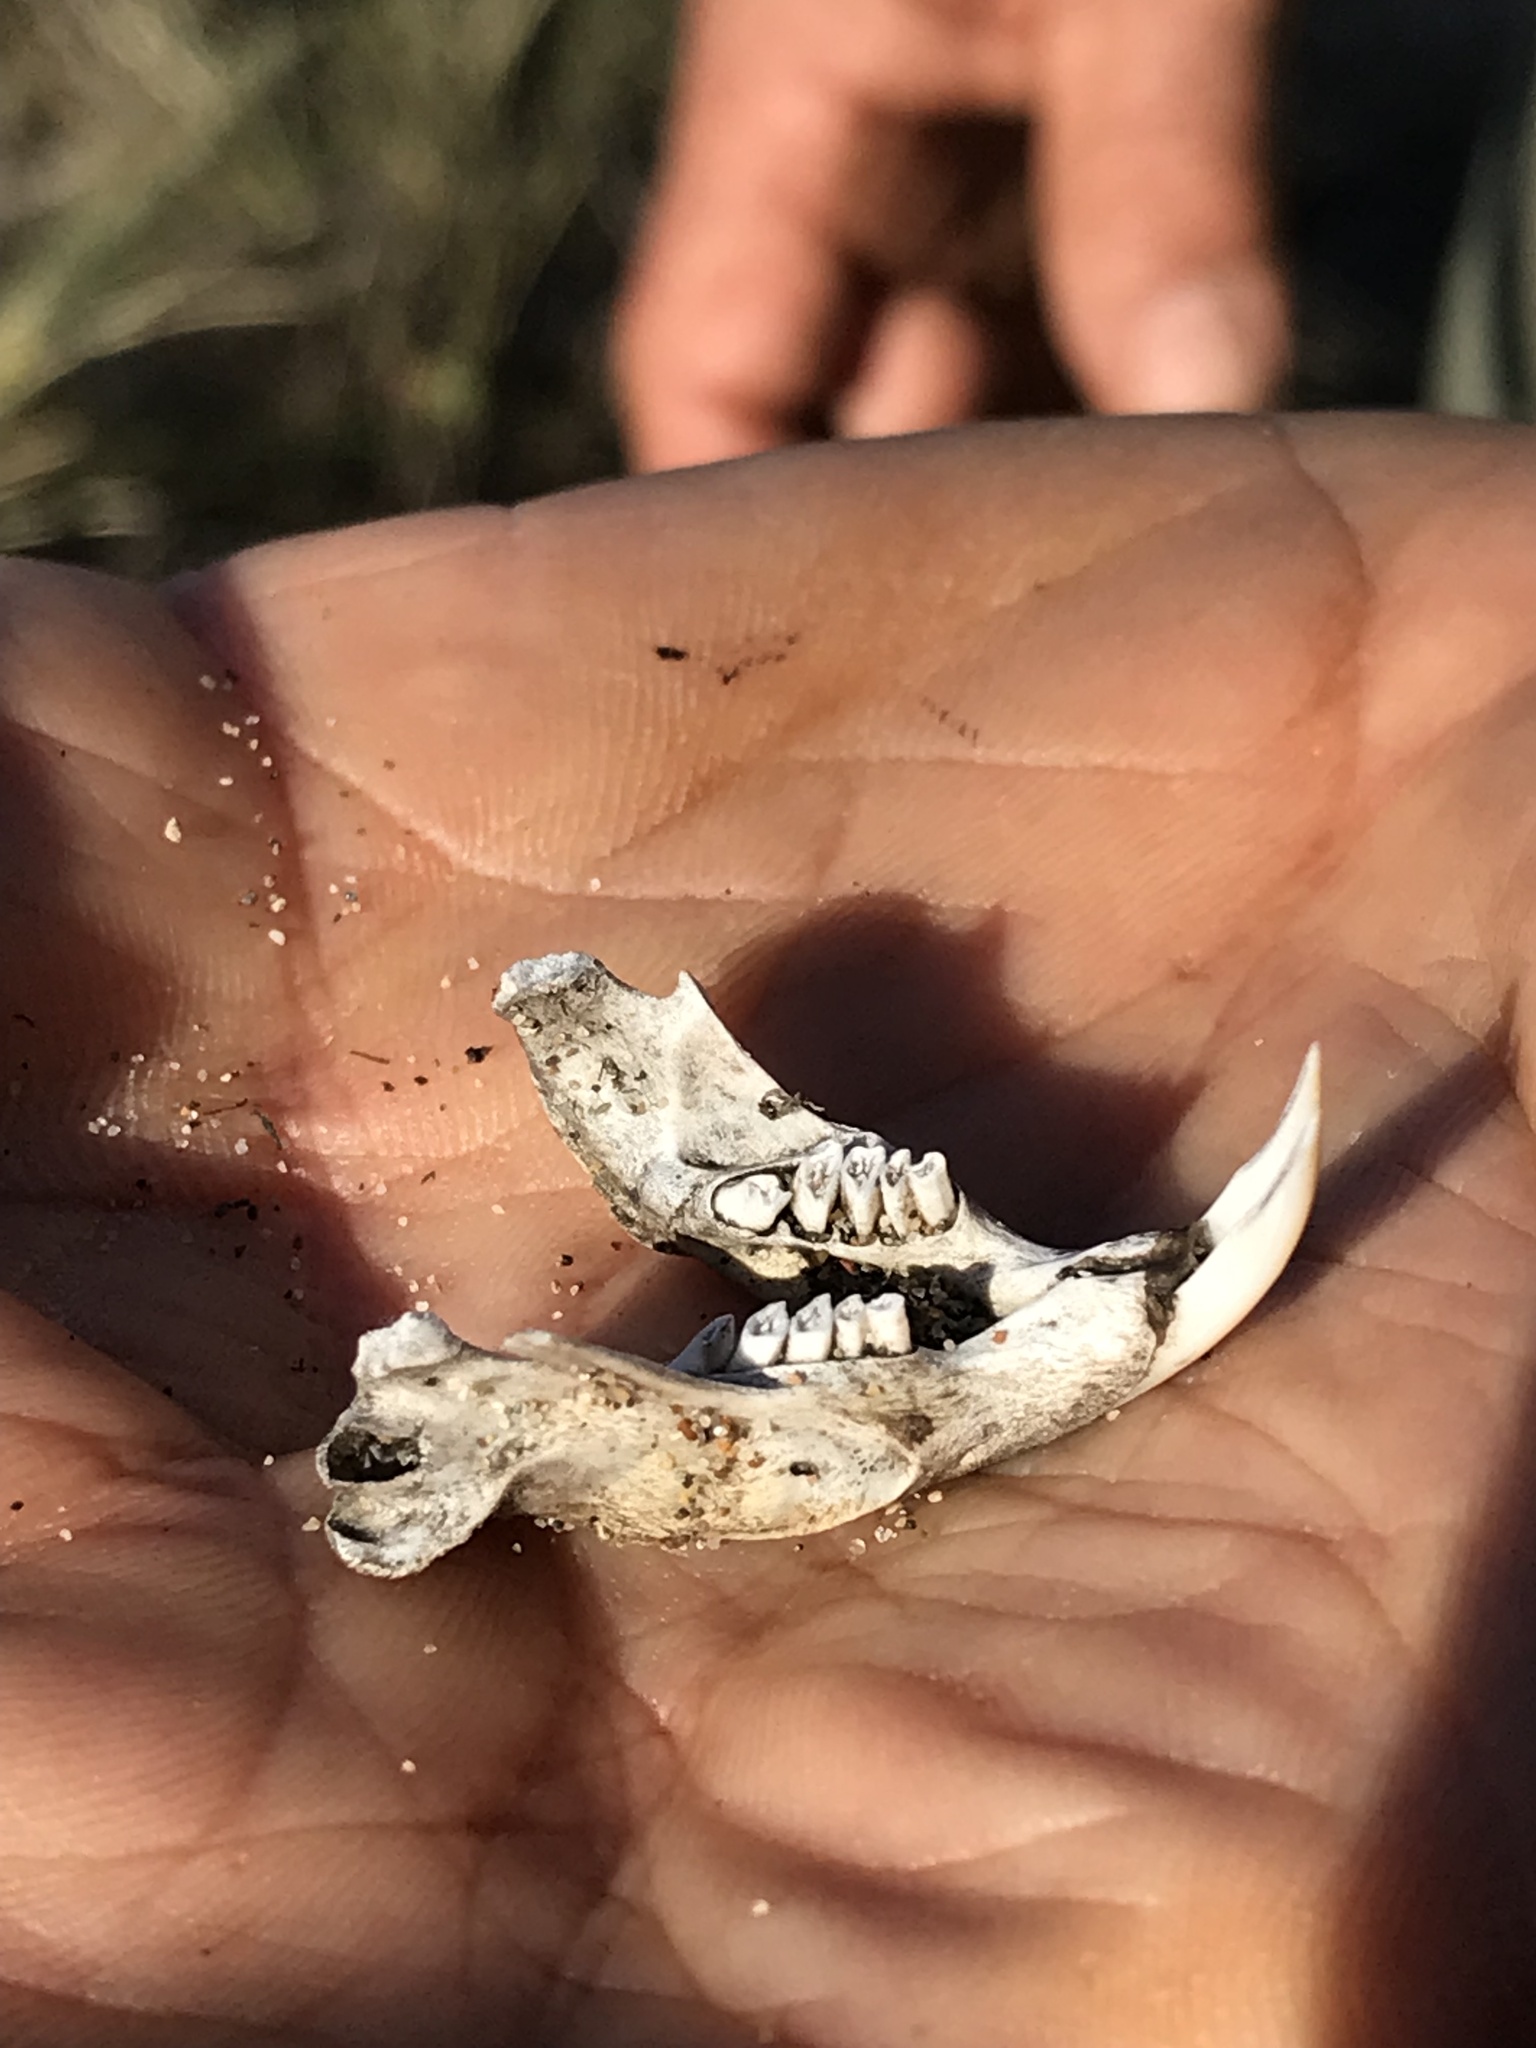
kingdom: Animalia
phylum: Chordata
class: Mammalia
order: Rodentia
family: Geomyidae
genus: Thomomys
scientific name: Thomomys bottae
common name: Botta's pocket gopher
